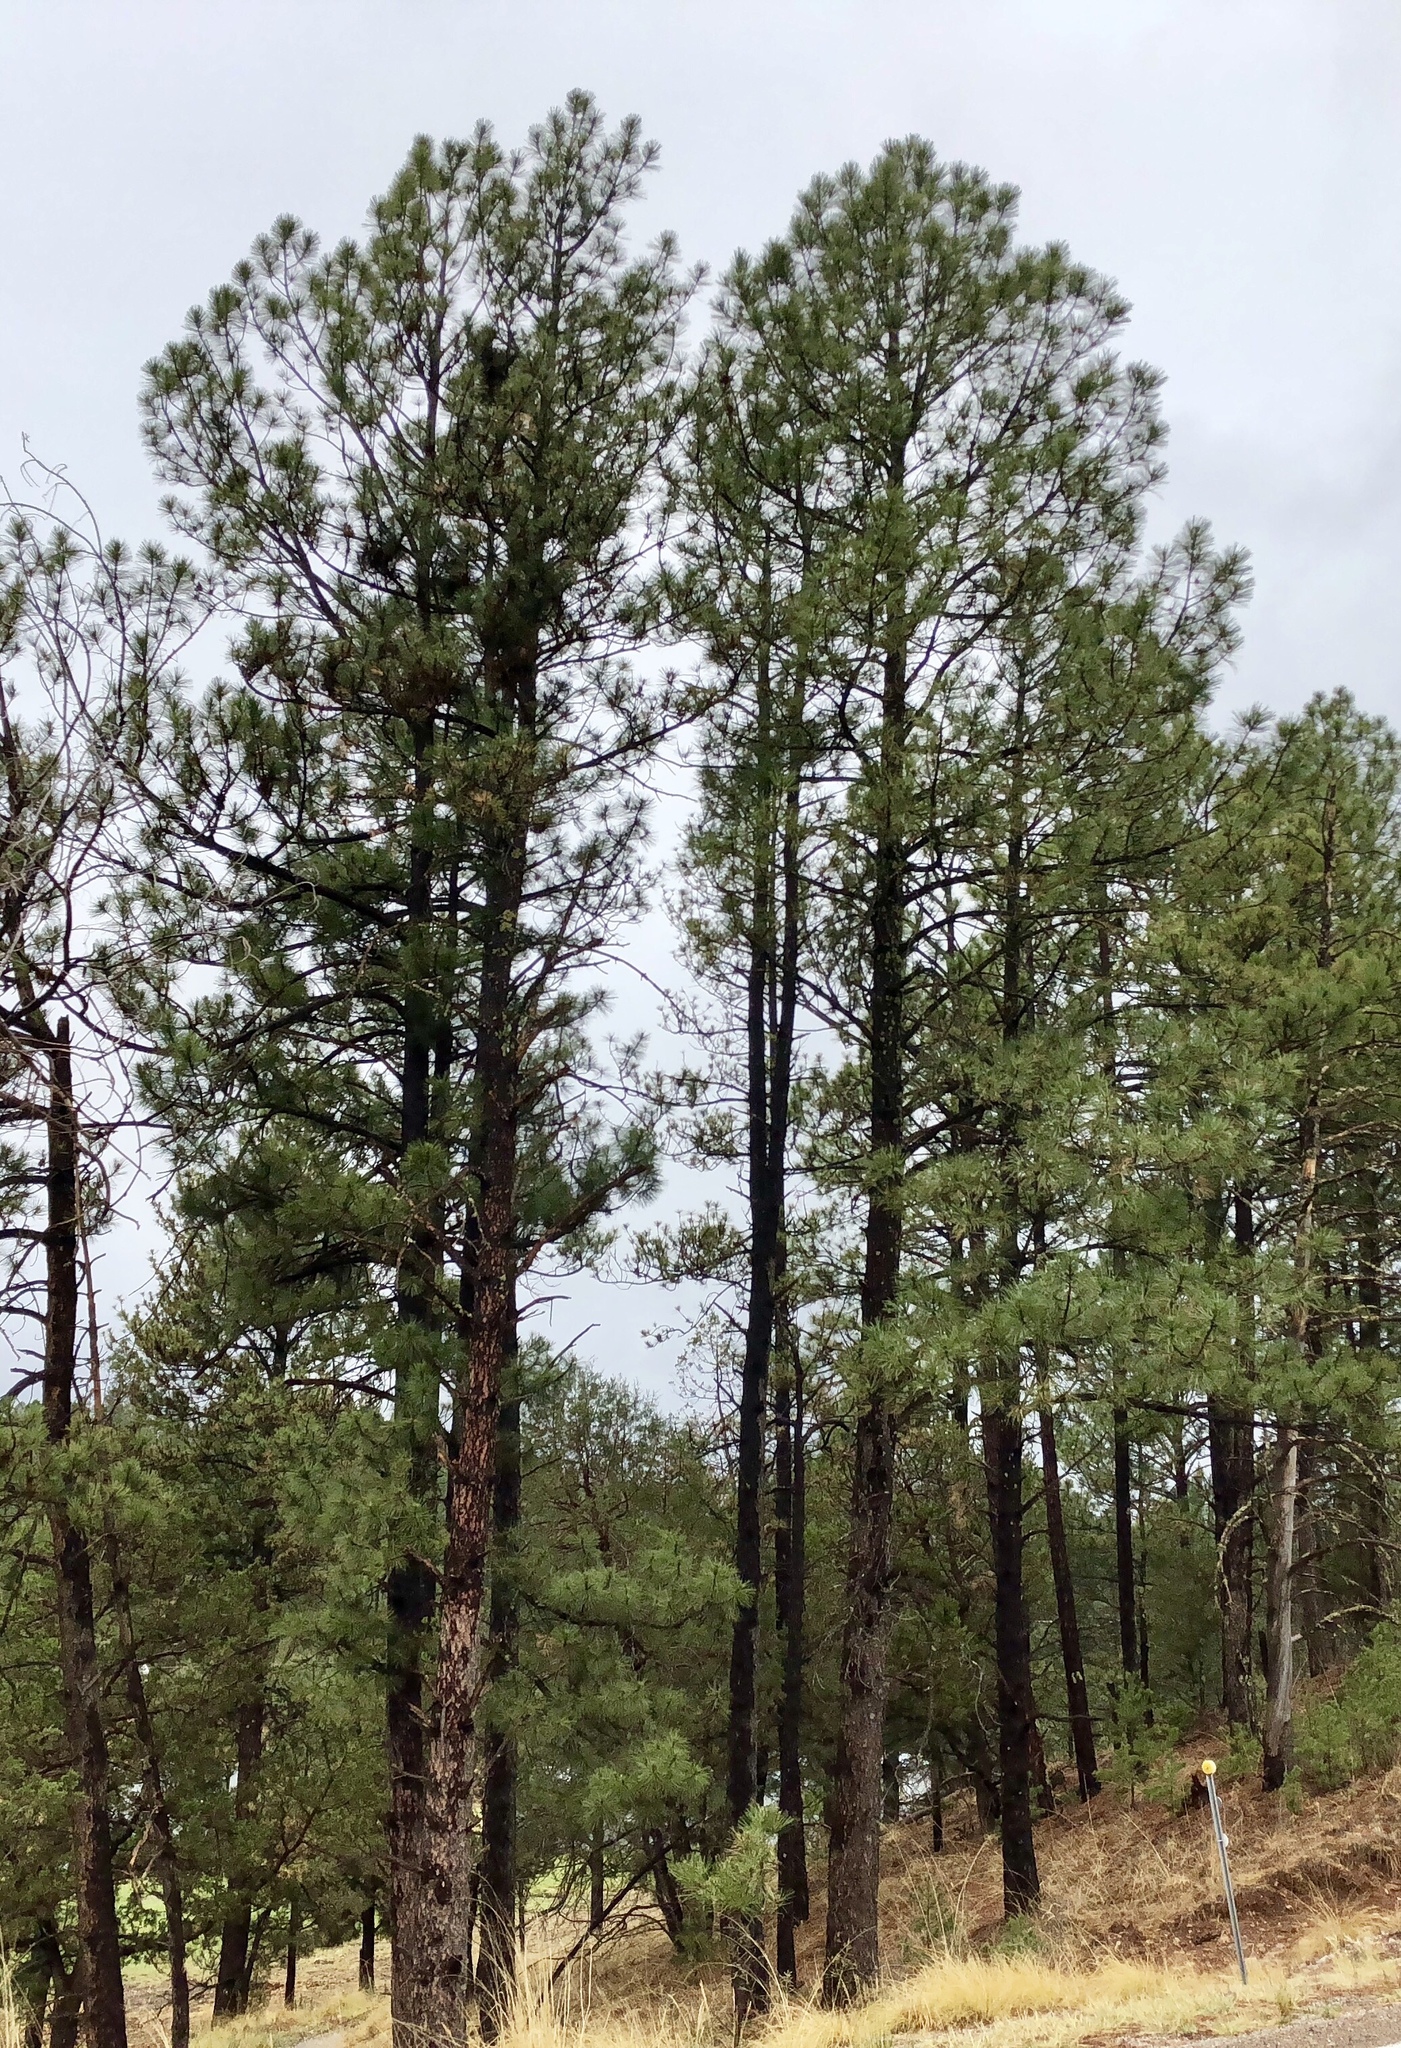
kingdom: Plantae
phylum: Tracheophyta
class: Pinopsida
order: Pinales
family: Pinaceae
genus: Pinus
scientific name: Pinus ponderosa
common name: Western yellow-pine
